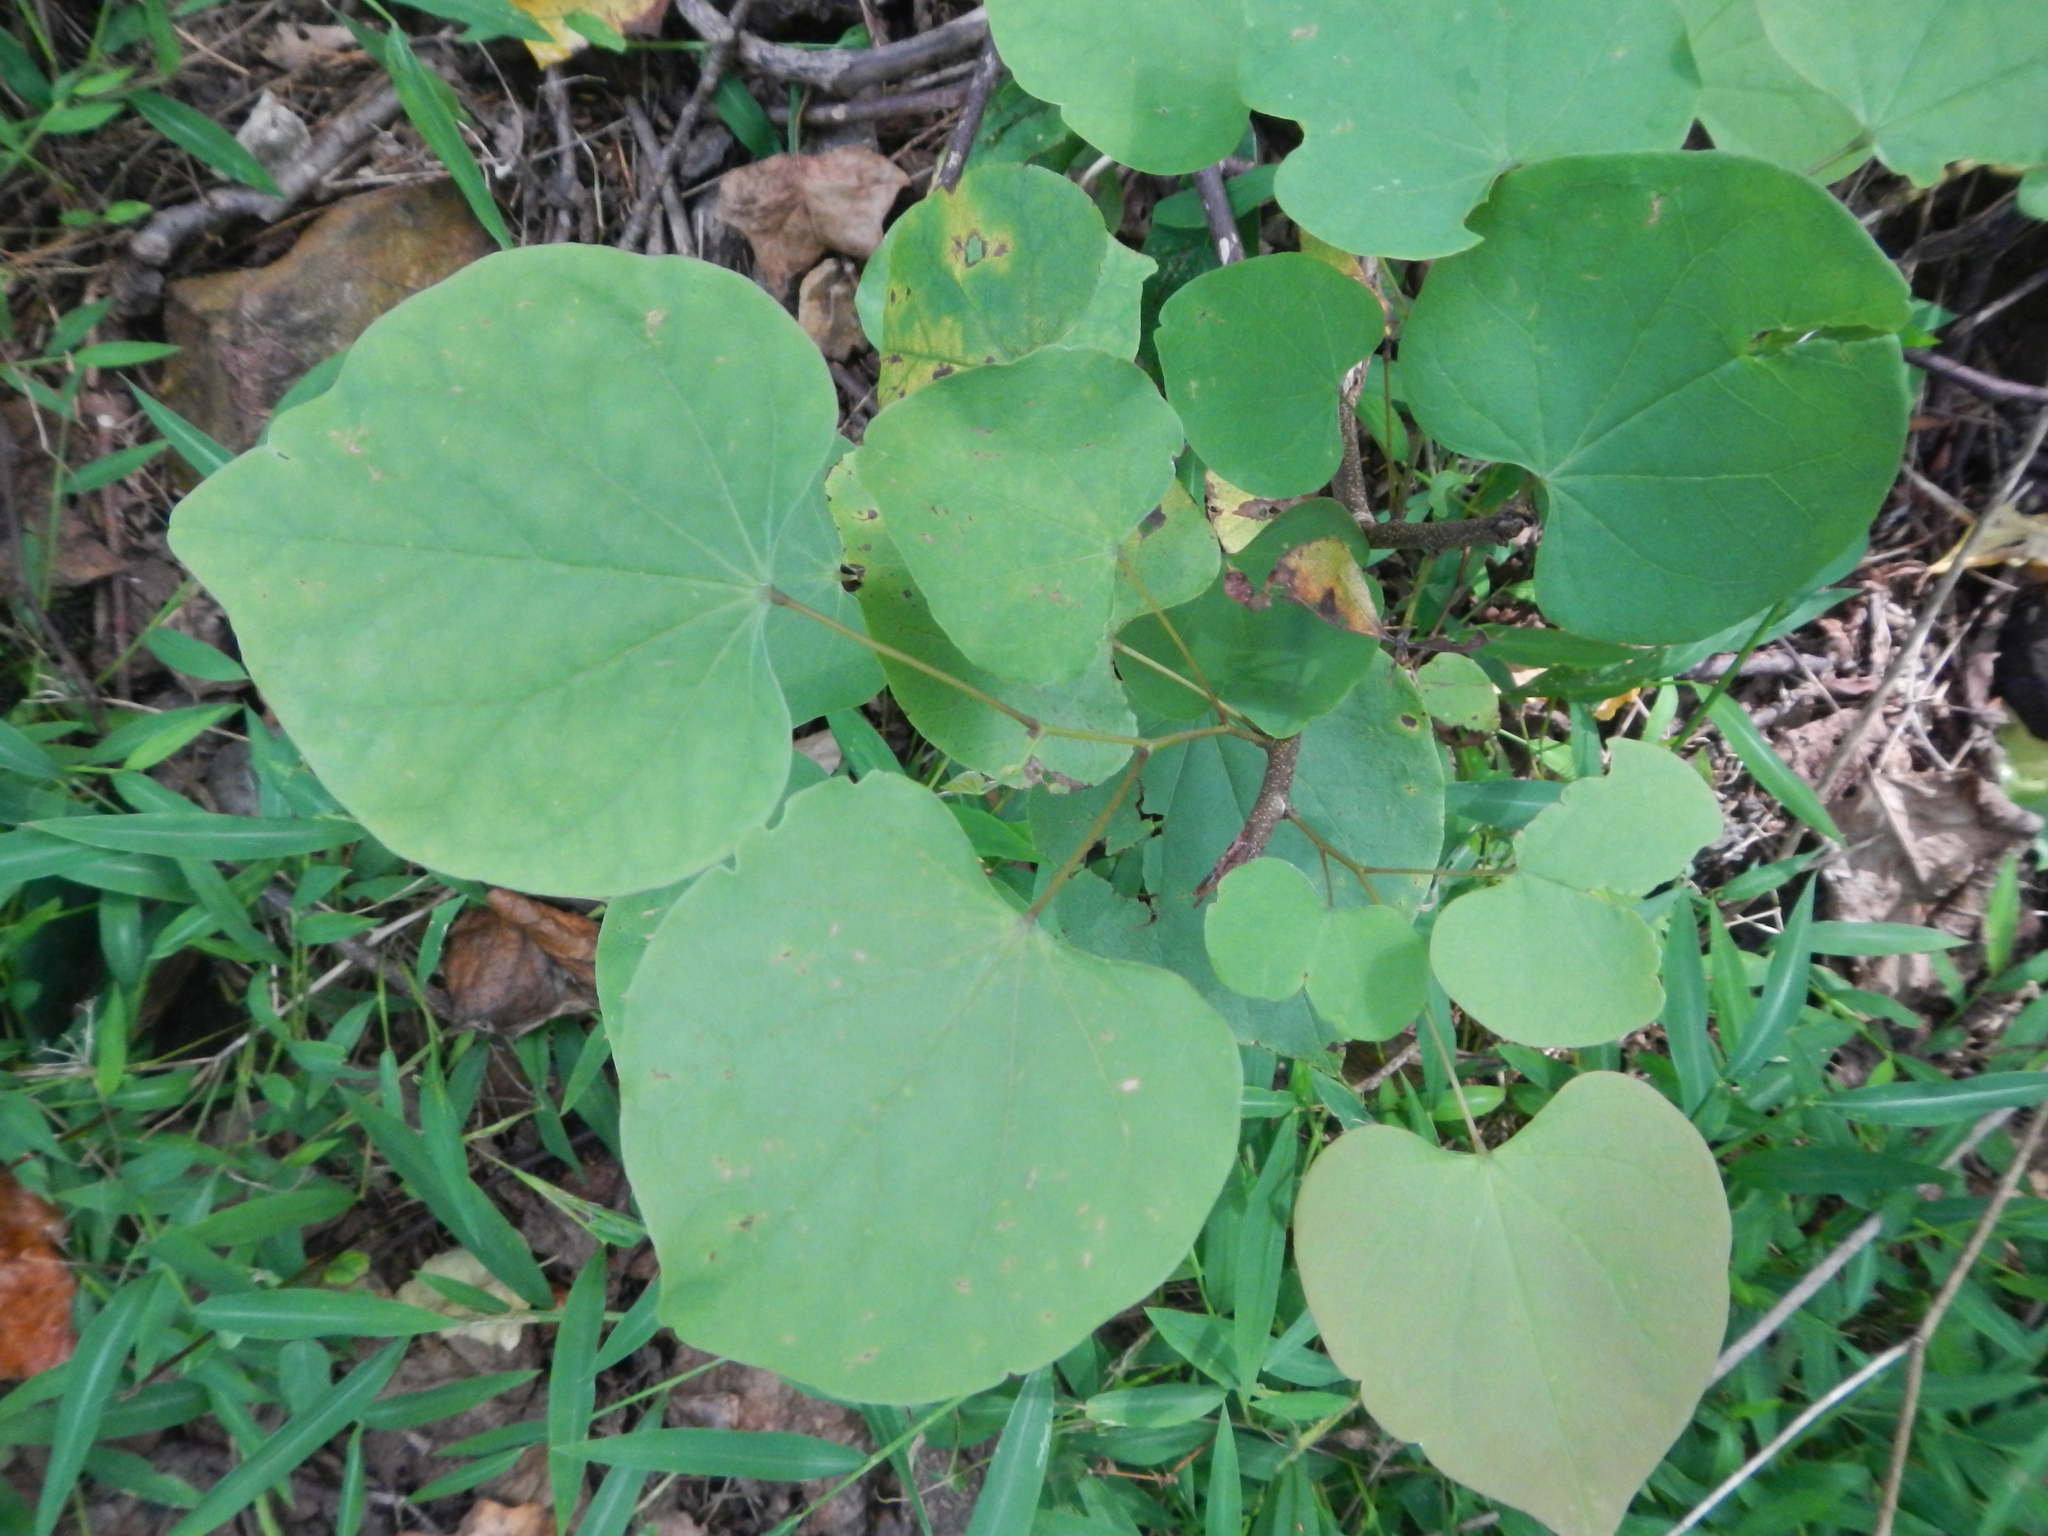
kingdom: Plantae
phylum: Tracheophyta
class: Magnoliopsida
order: Fabales
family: Fabaceae
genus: Cercis
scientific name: Cercis canadensis
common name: Eastern redbud
